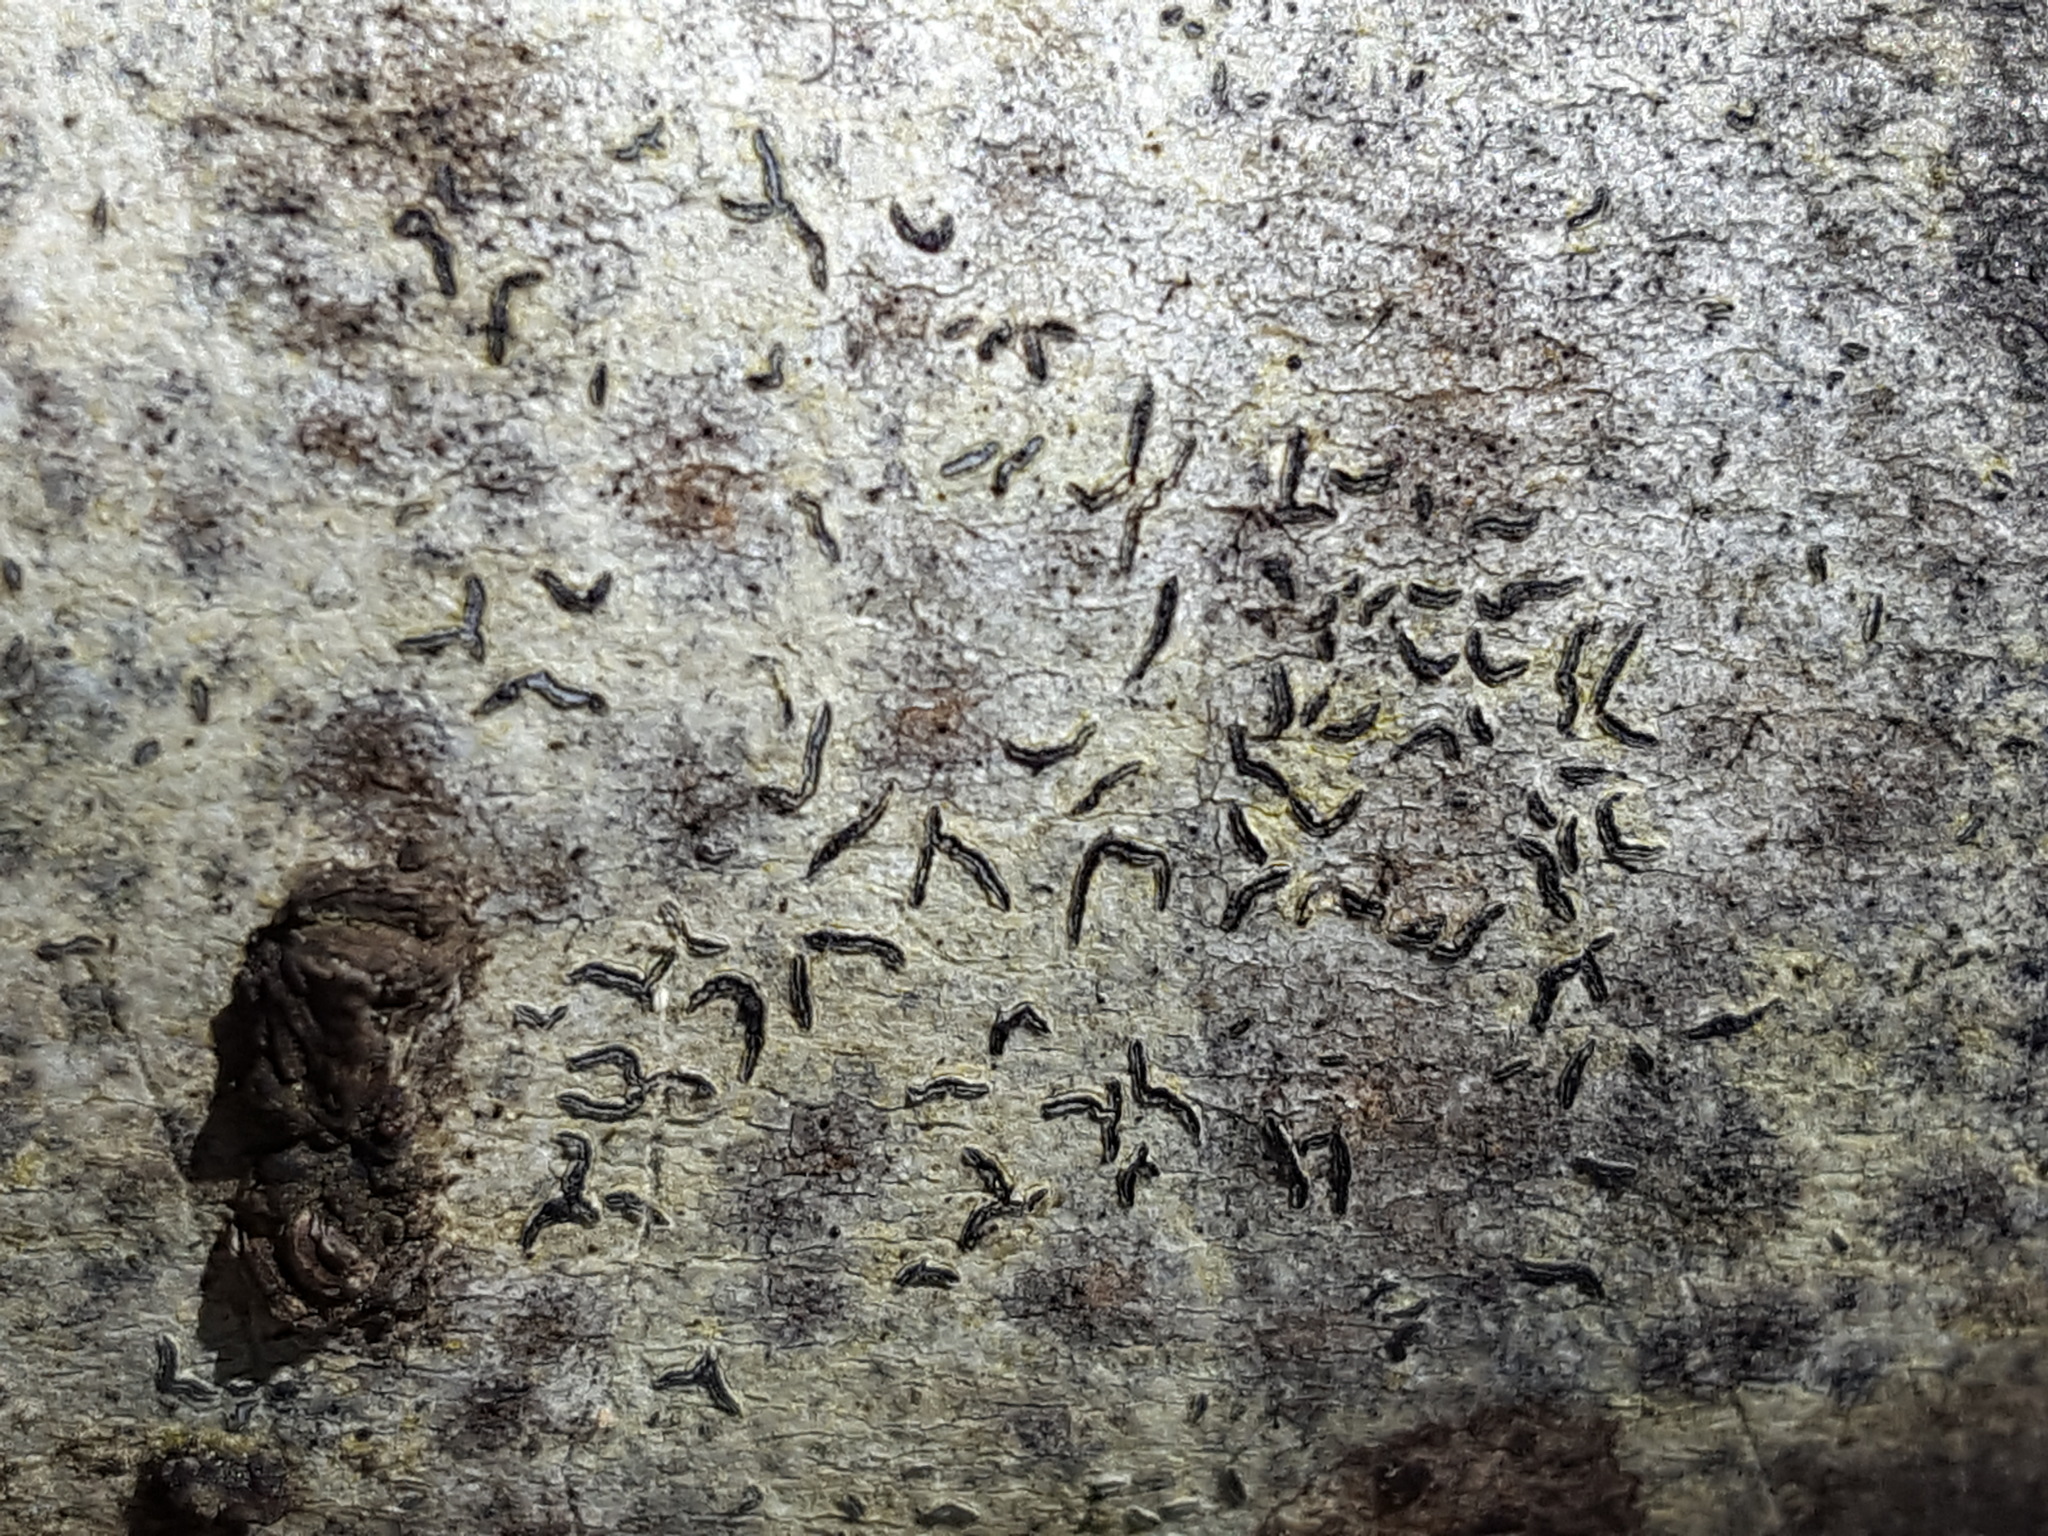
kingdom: Fungi
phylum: Ascomycota
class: Lecanoromycetes
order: Ostropales
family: Graphidaceae
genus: Graphis
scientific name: Graphis scripta
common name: Script lichen
